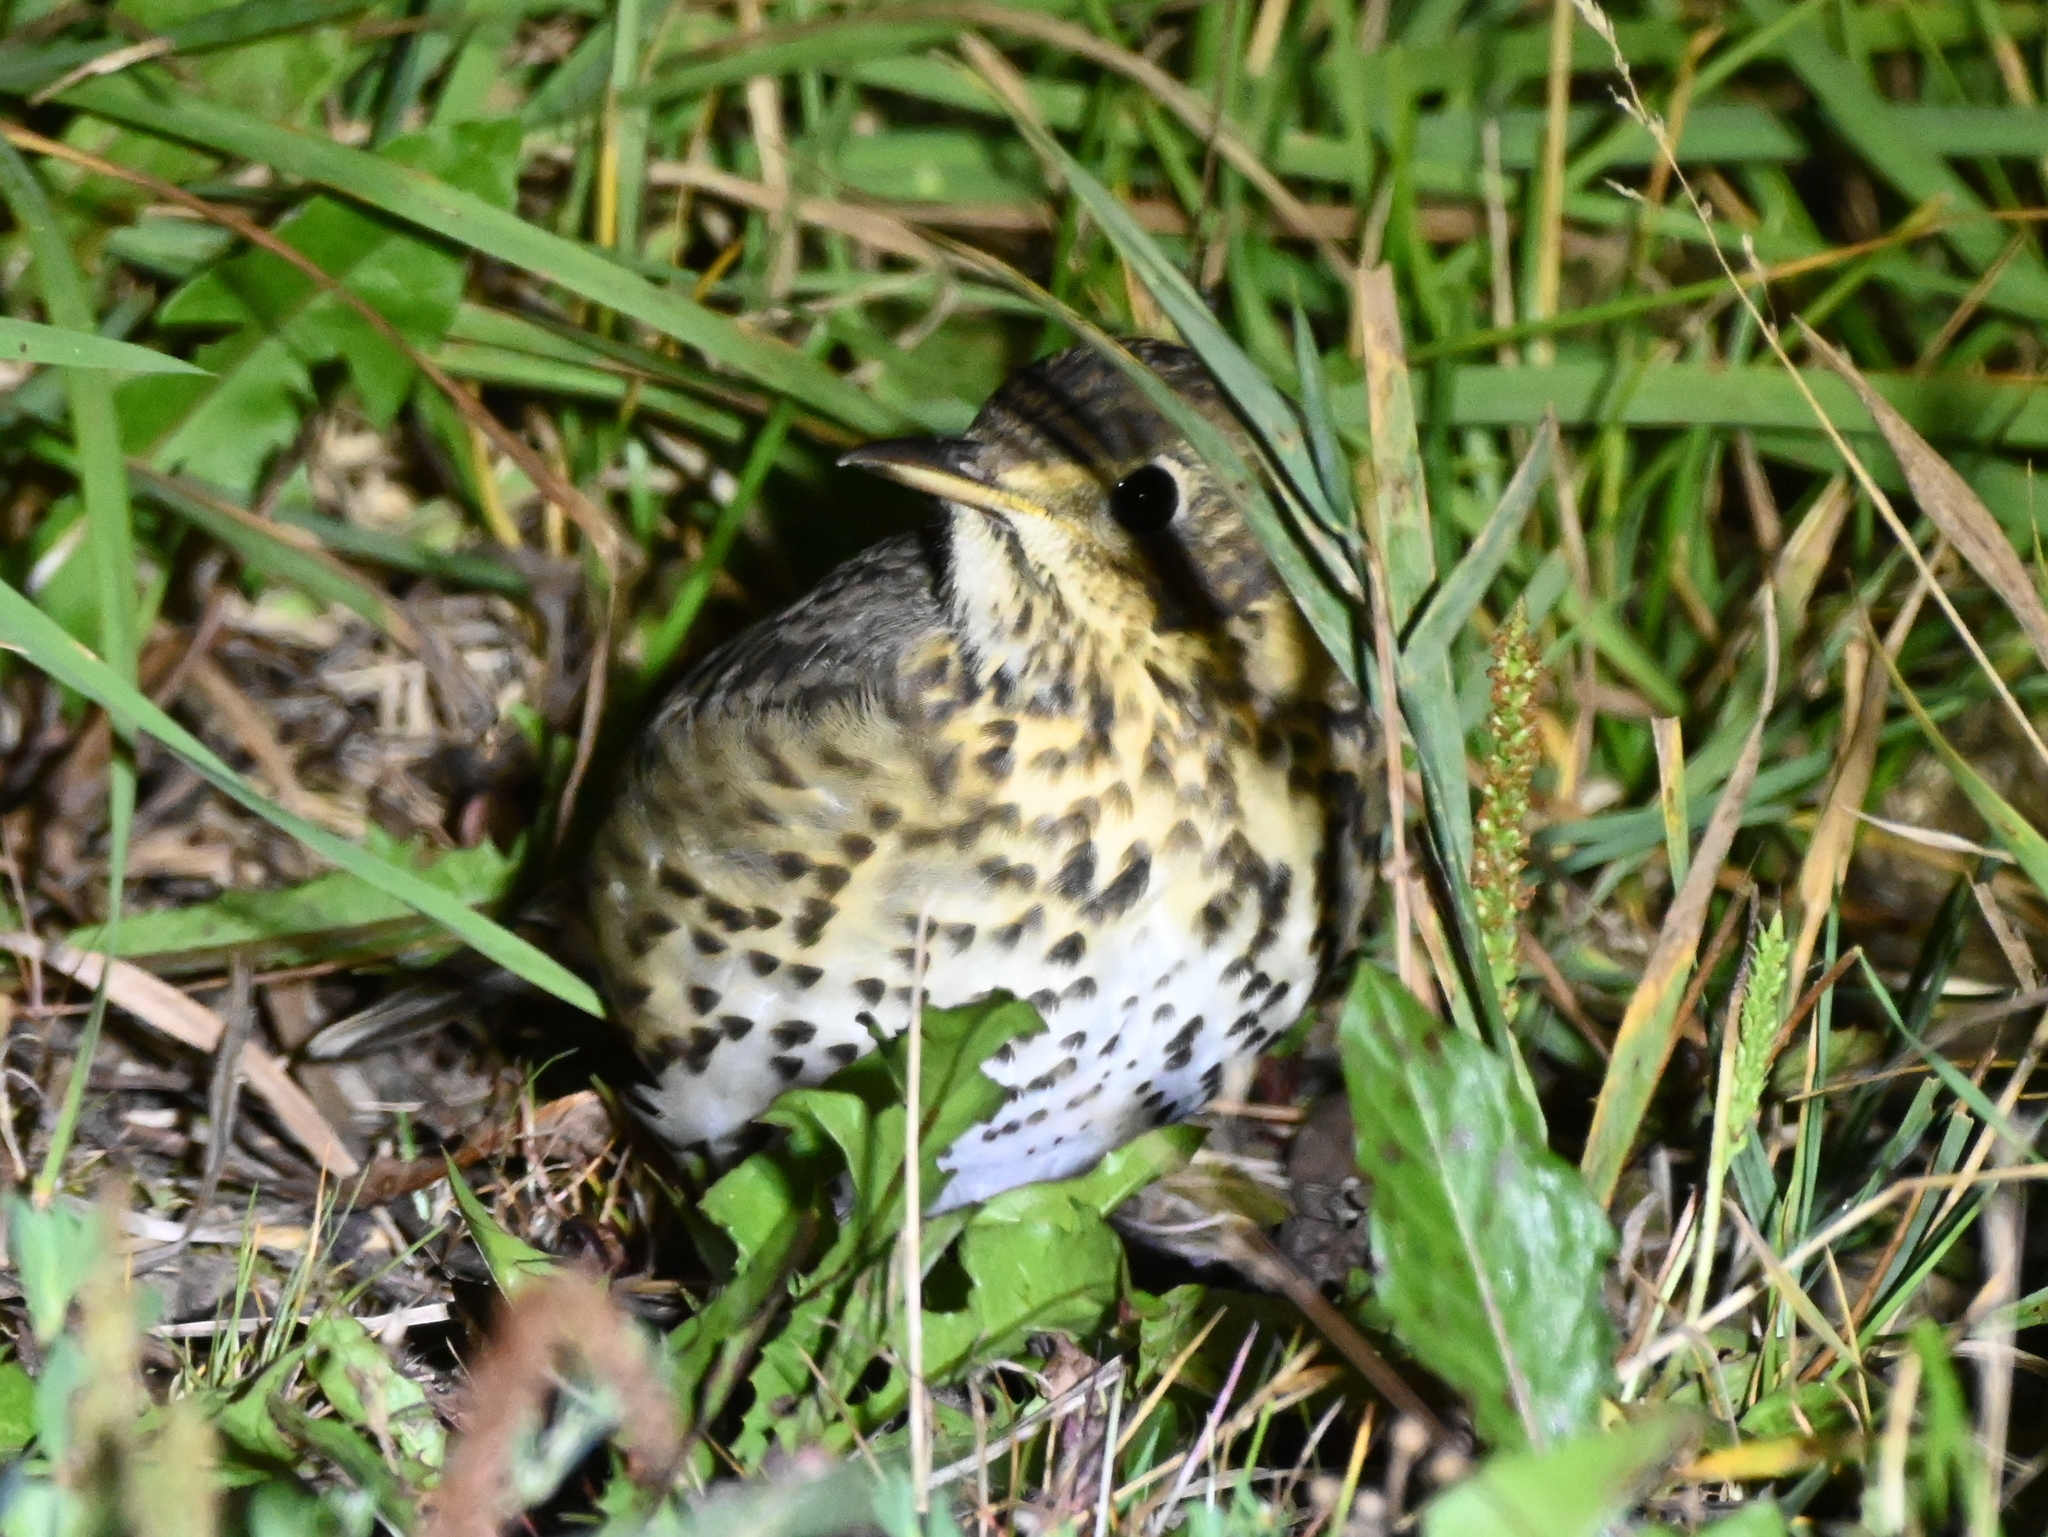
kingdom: Animalia
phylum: Chordata
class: Aves
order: Passeriformes
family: Turdidae
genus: Turdus
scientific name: Turdus philomelos
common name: Song thrush
